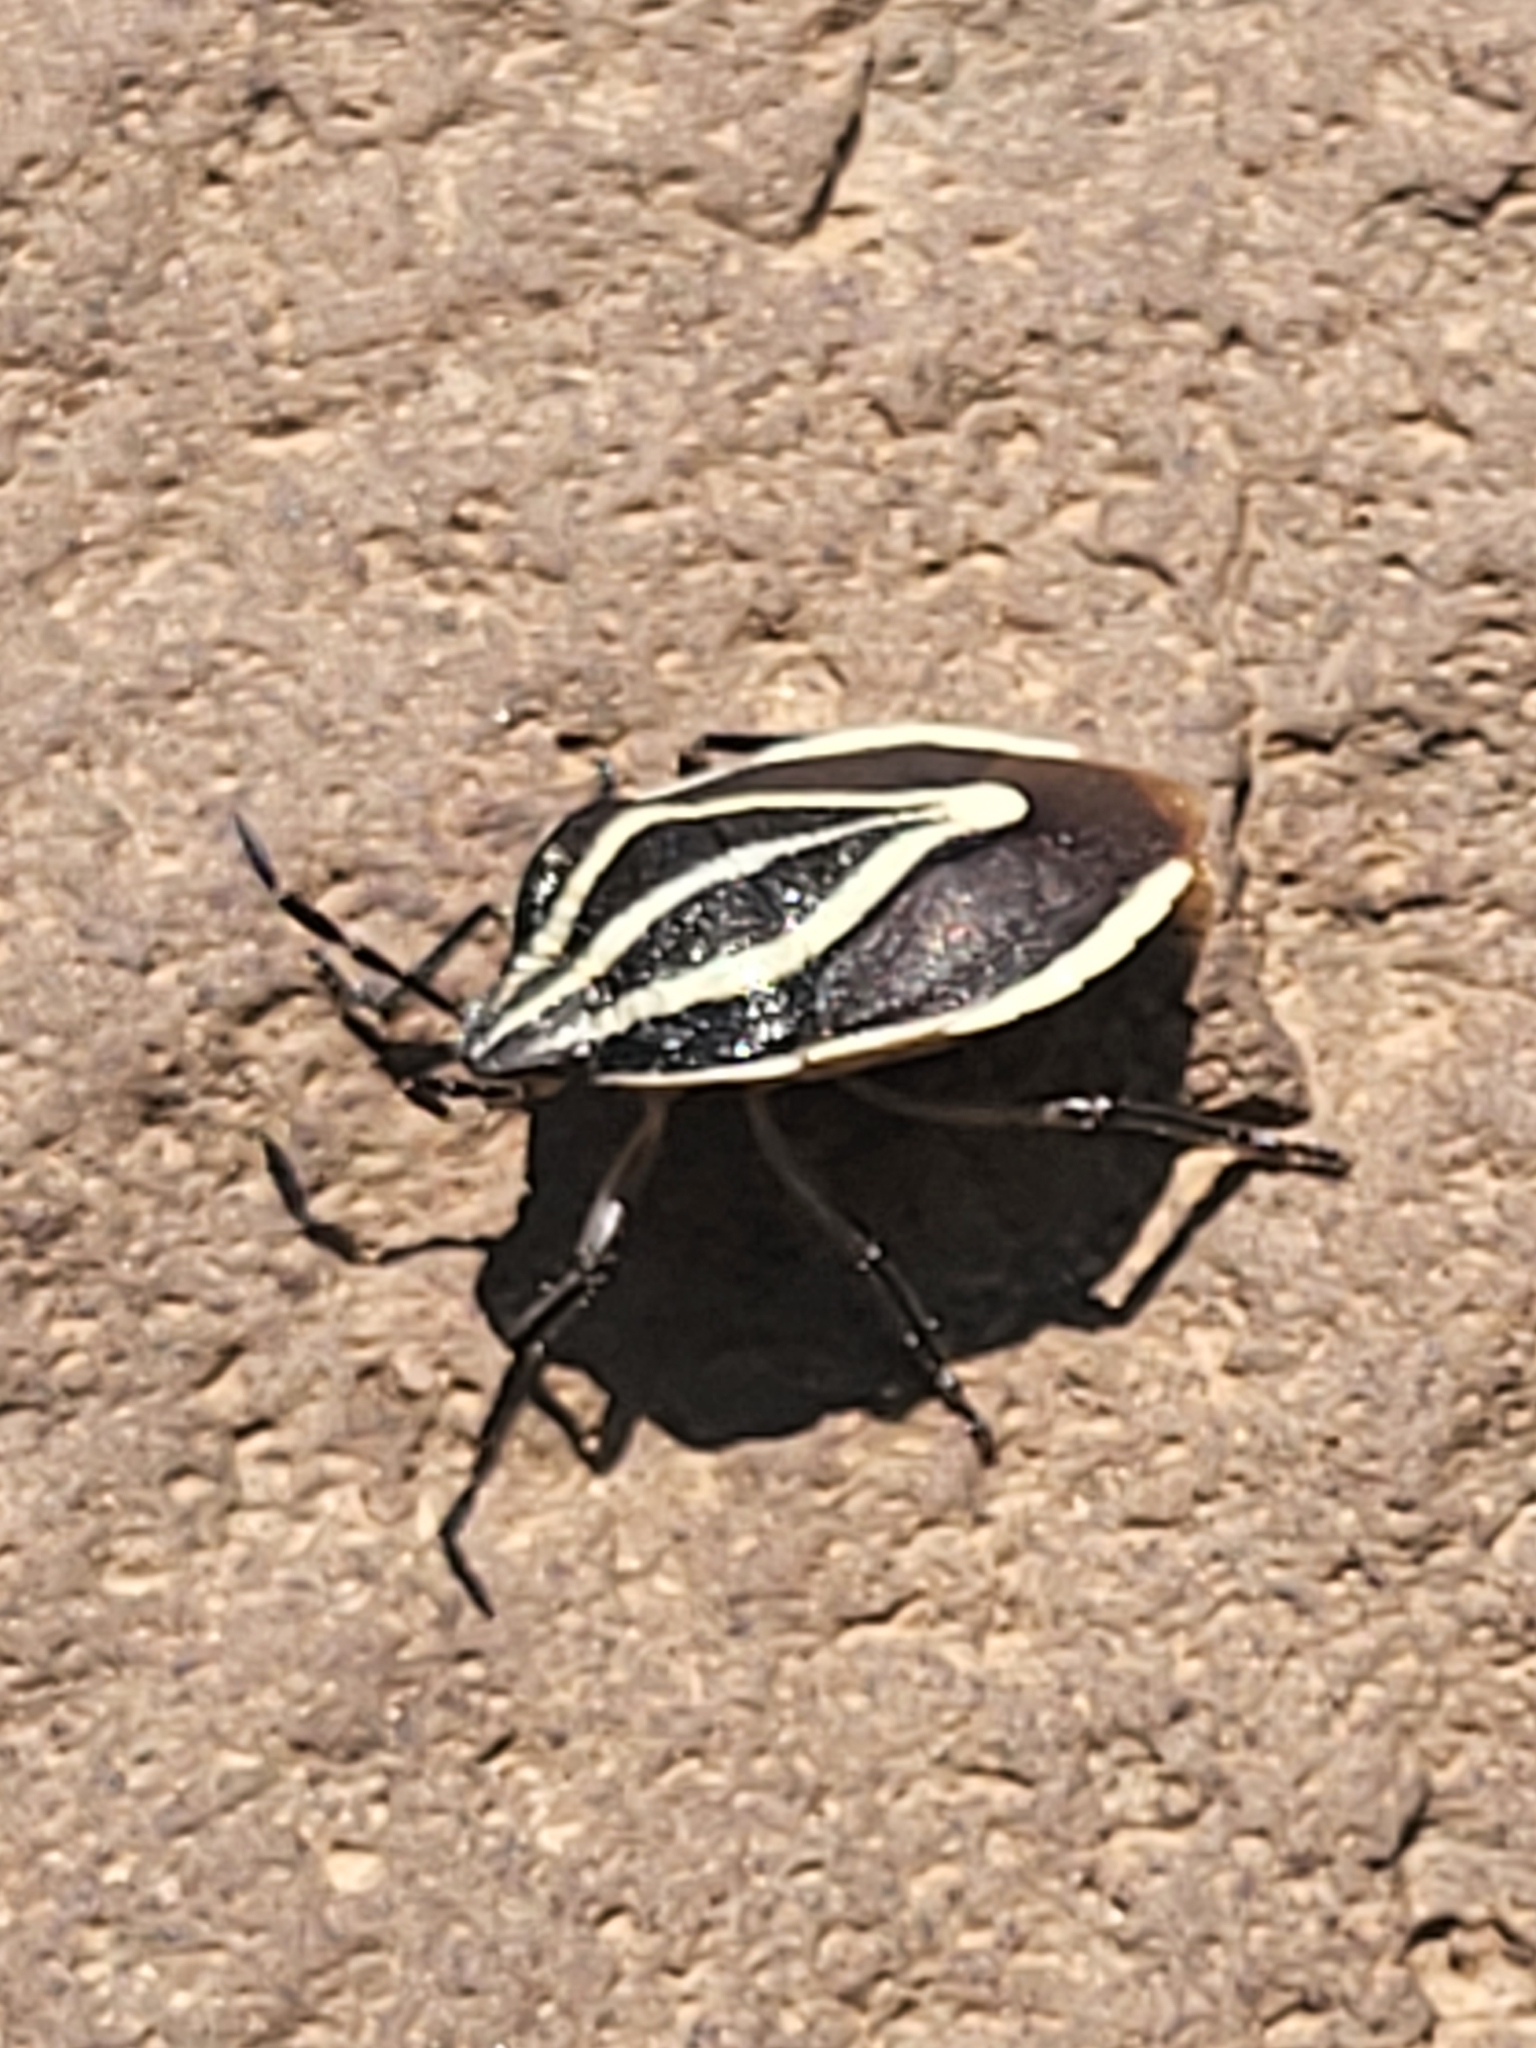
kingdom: Animalia
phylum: Arthropoda
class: Insecta
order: Hemiptera
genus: Rhombocoris
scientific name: Rhombocoris
